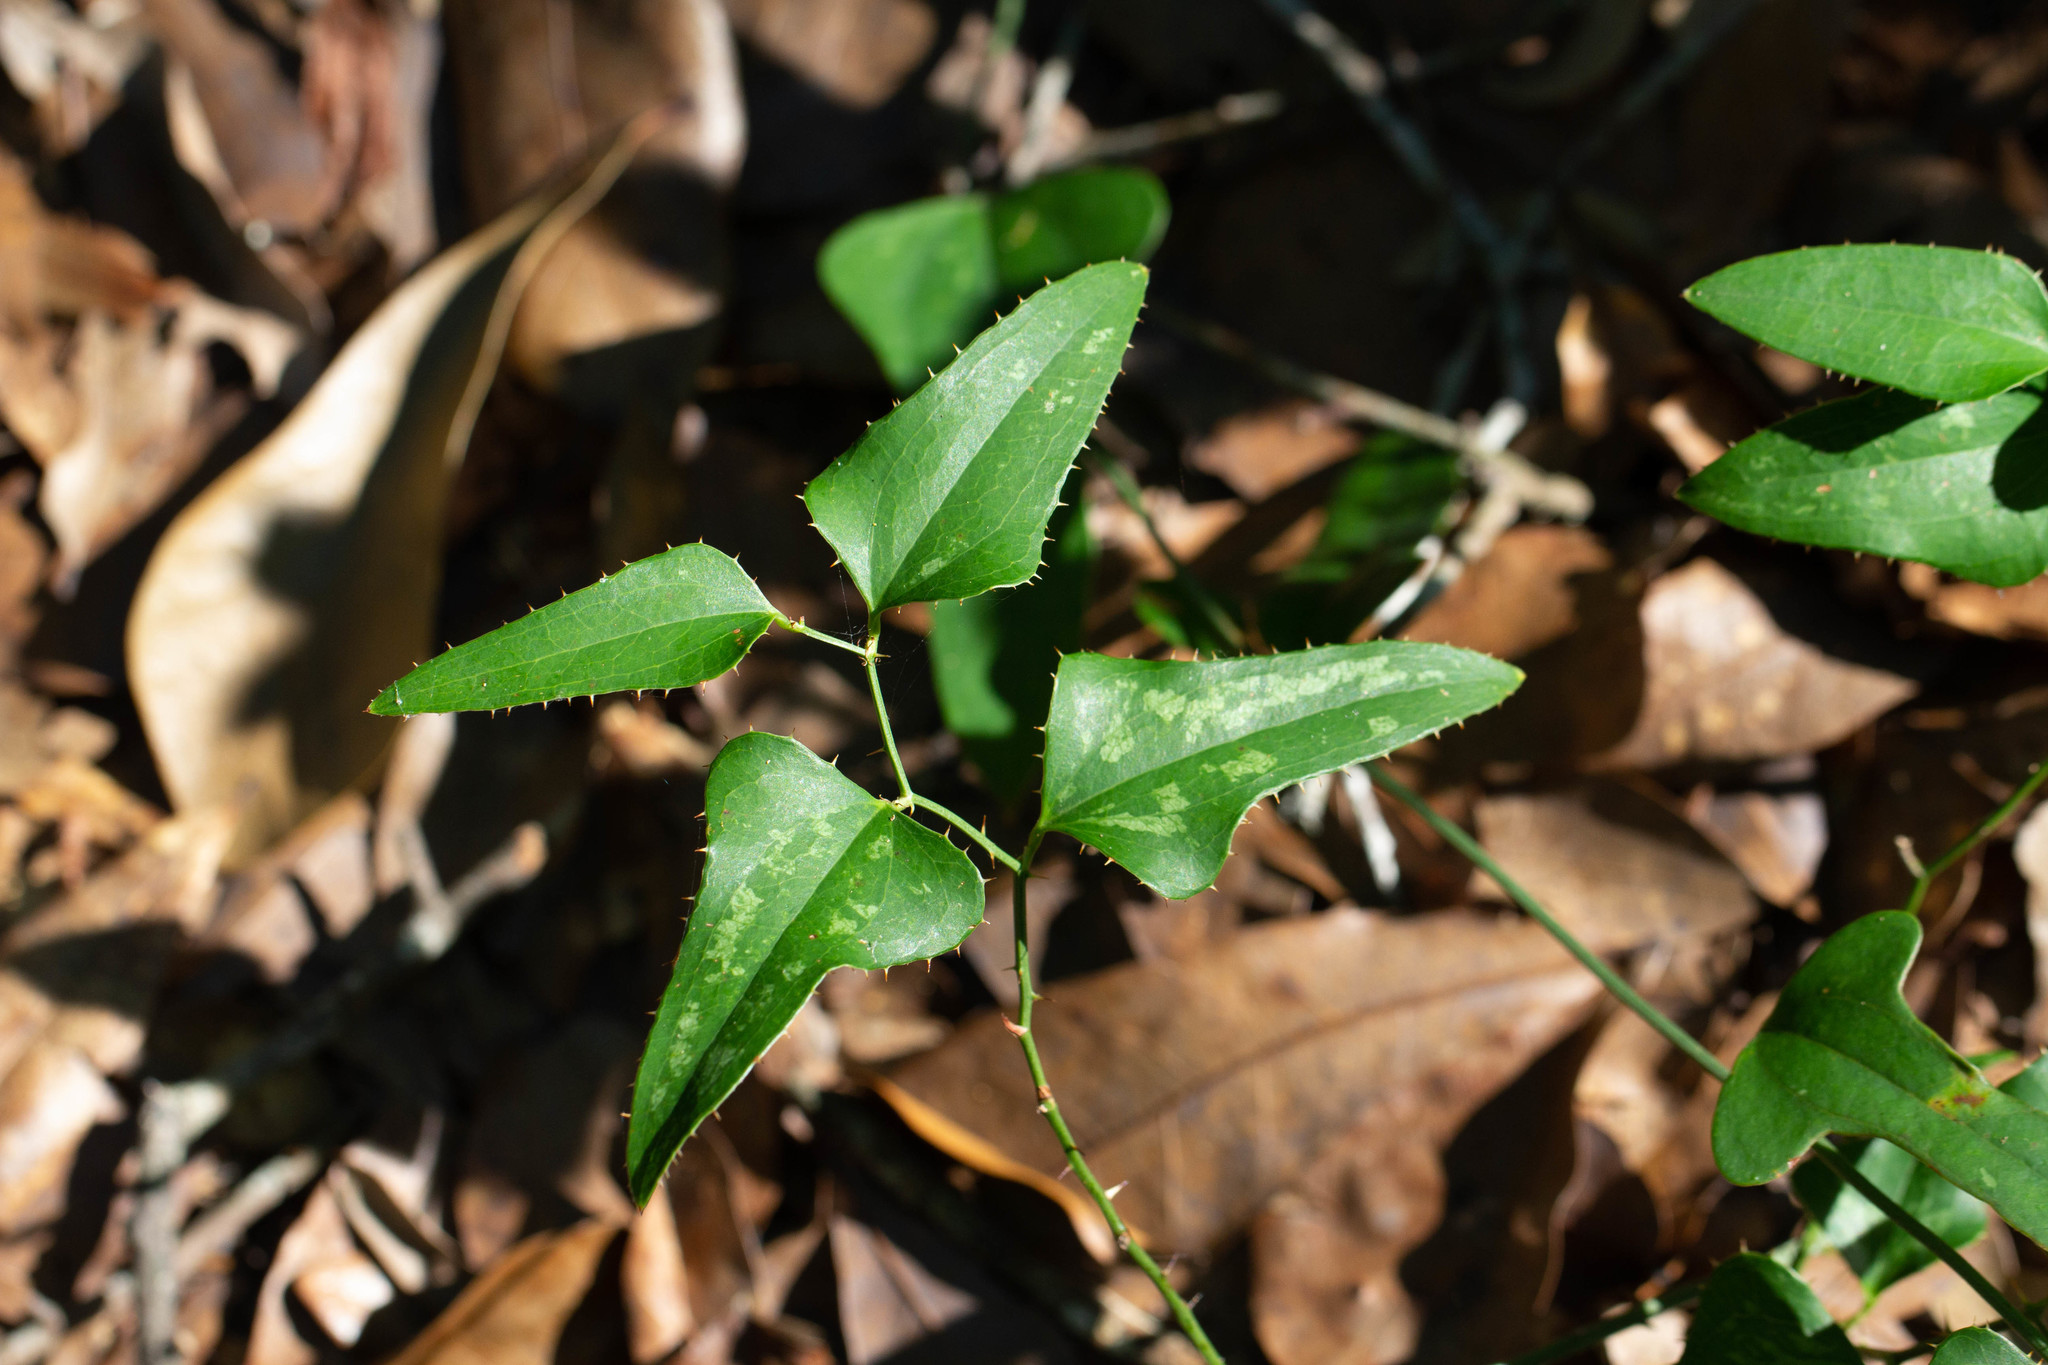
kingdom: Plantae
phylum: Tracheophyta
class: Liliopsida
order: Liliales
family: Smilacaceae
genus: Smilax
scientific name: Smilax bona-nox
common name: Catbrier
